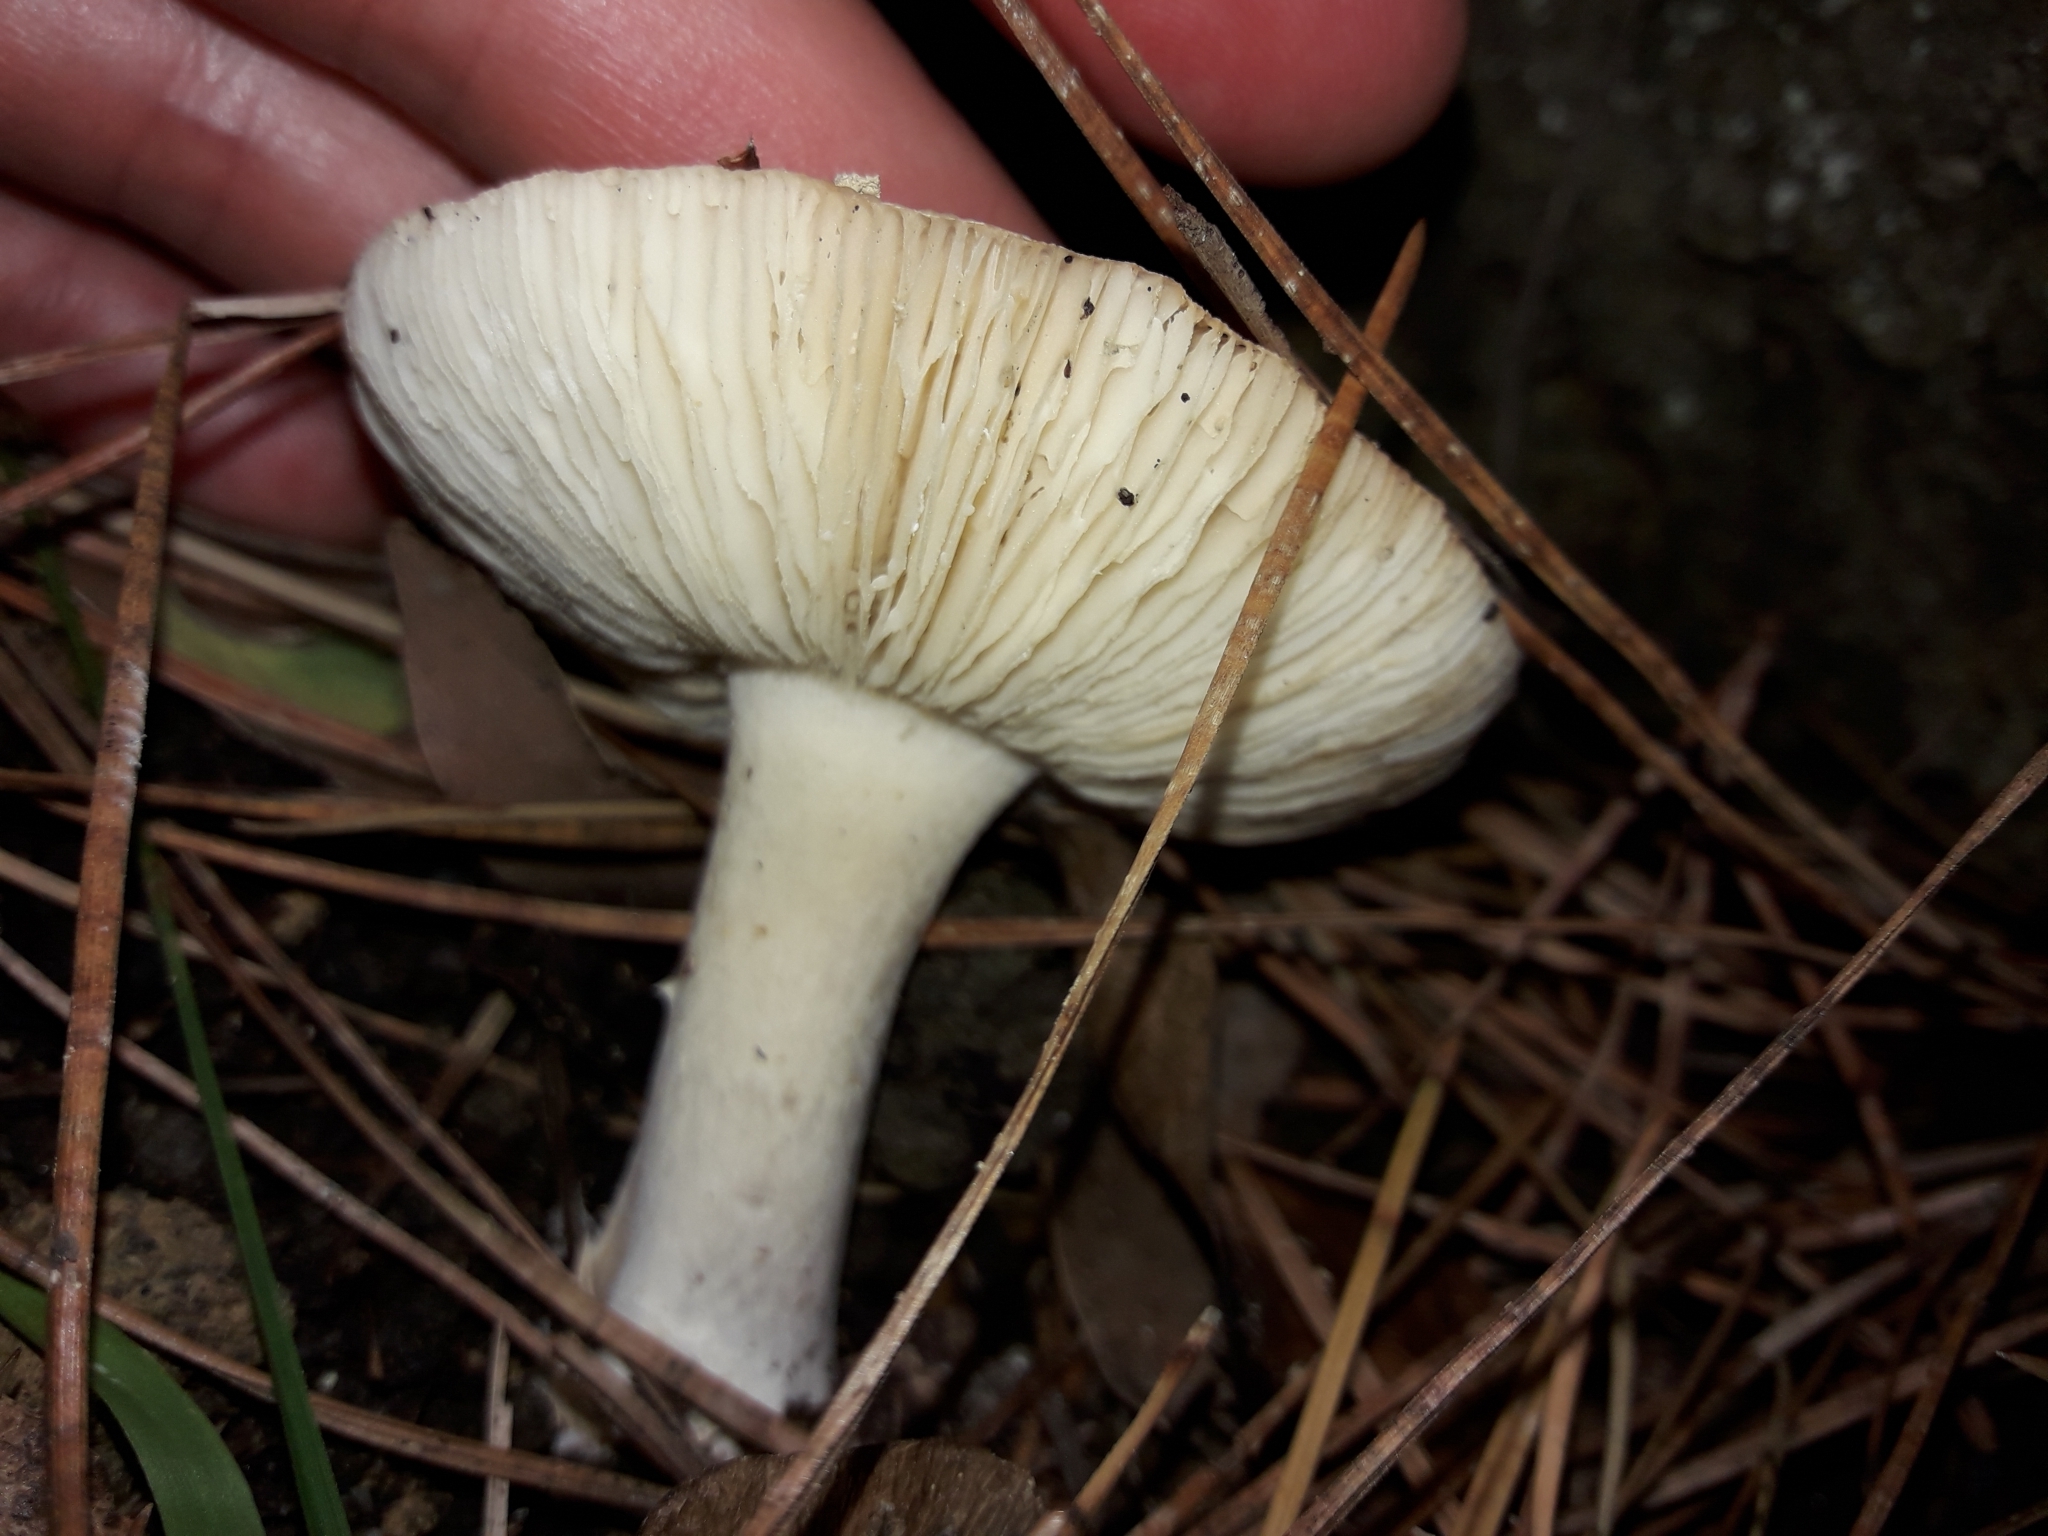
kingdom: Fungi
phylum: Basidiomycota
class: Agaricomycetes
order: Agaricales
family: Amanitaceae
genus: Amanita
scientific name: Amanita gemmata
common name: Jewelled amanita
